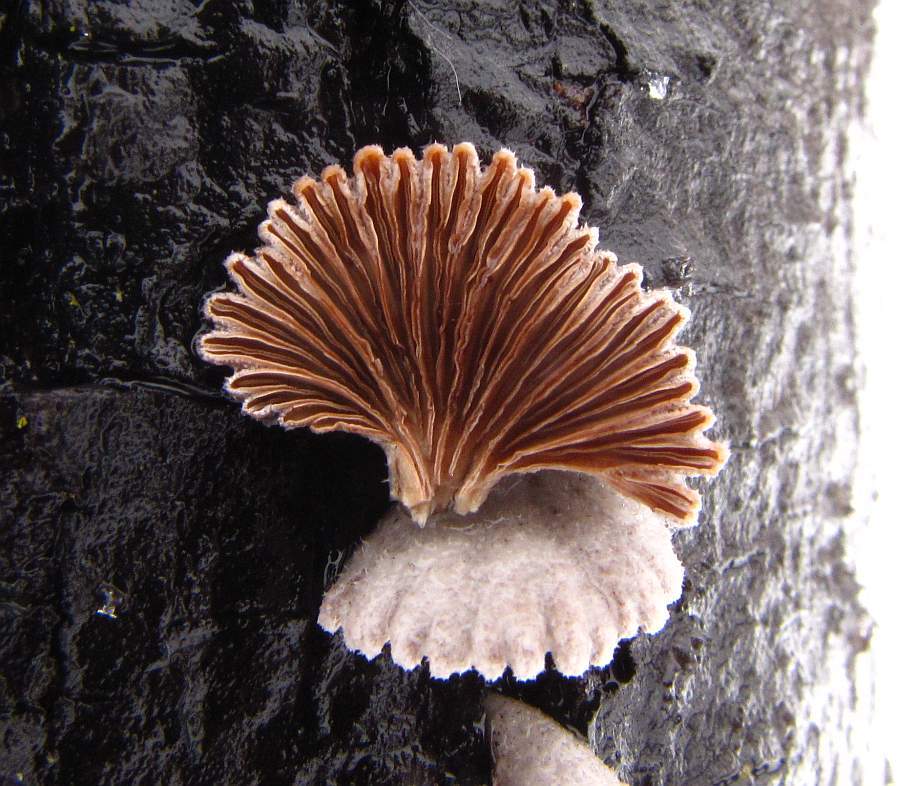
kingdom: Fungi
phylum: Basidiomycota
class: Agaricomycetes
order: Agaricales
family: Schizophyllaceae
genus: Schizophyllum
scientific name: Schizophyllum commune
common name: Common porecrust
